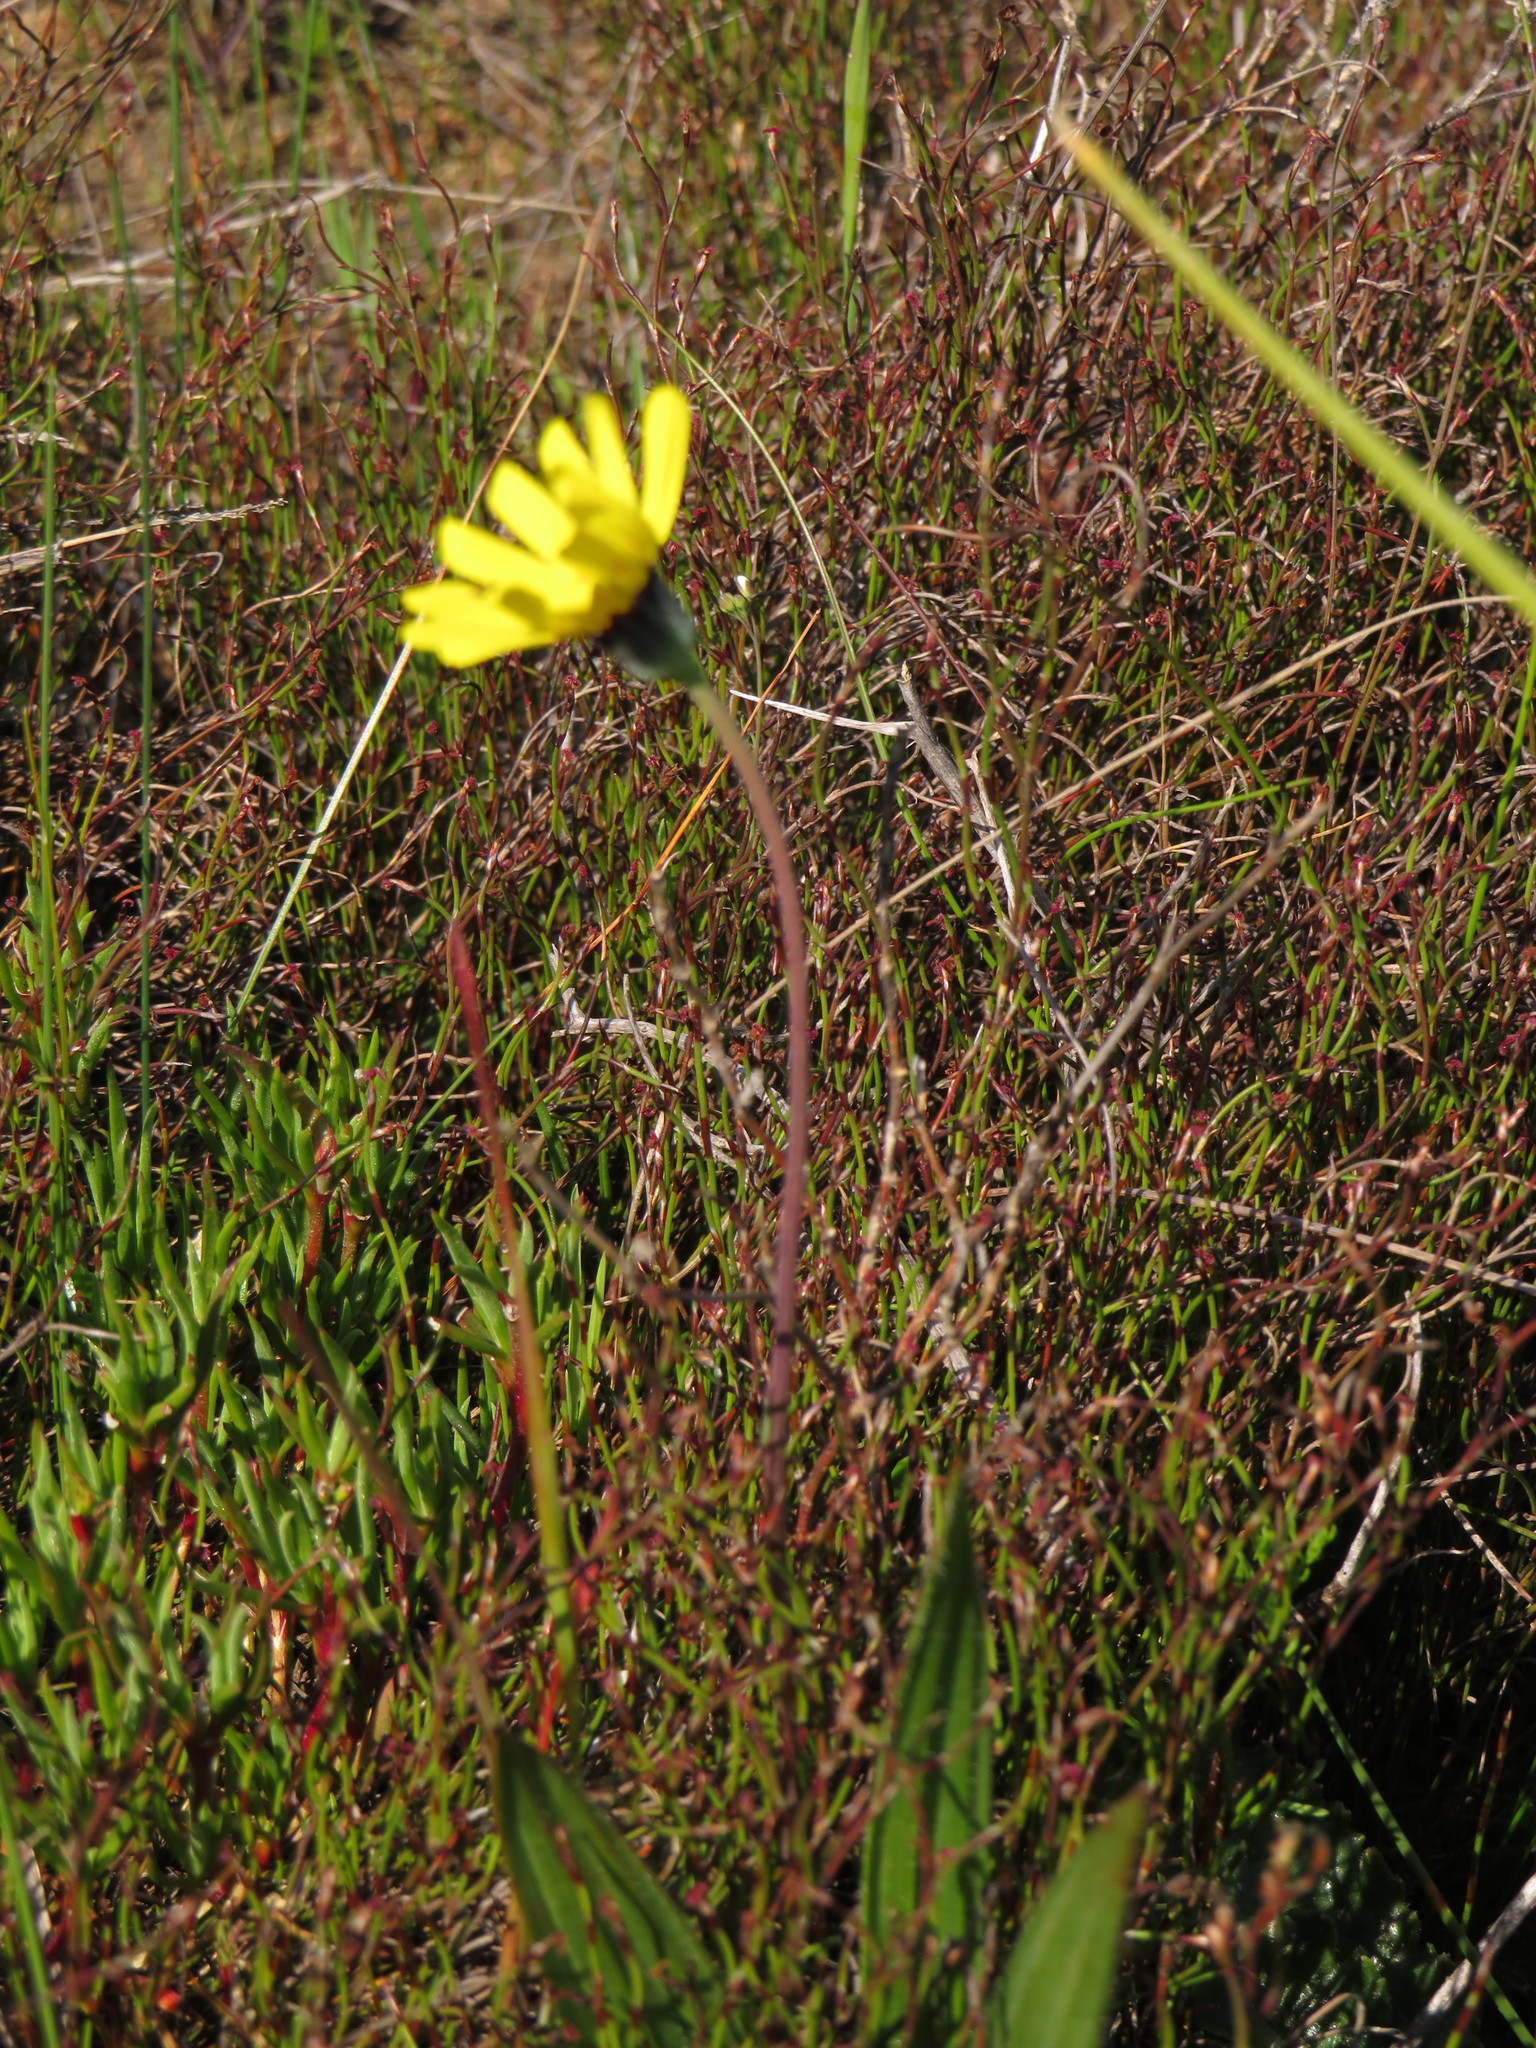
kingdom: Plantae
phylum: Tracheophyta
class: Magnoliopsida
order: Asterales
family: Asteraceae
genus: Othonna
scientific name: Othonna heterophylla
